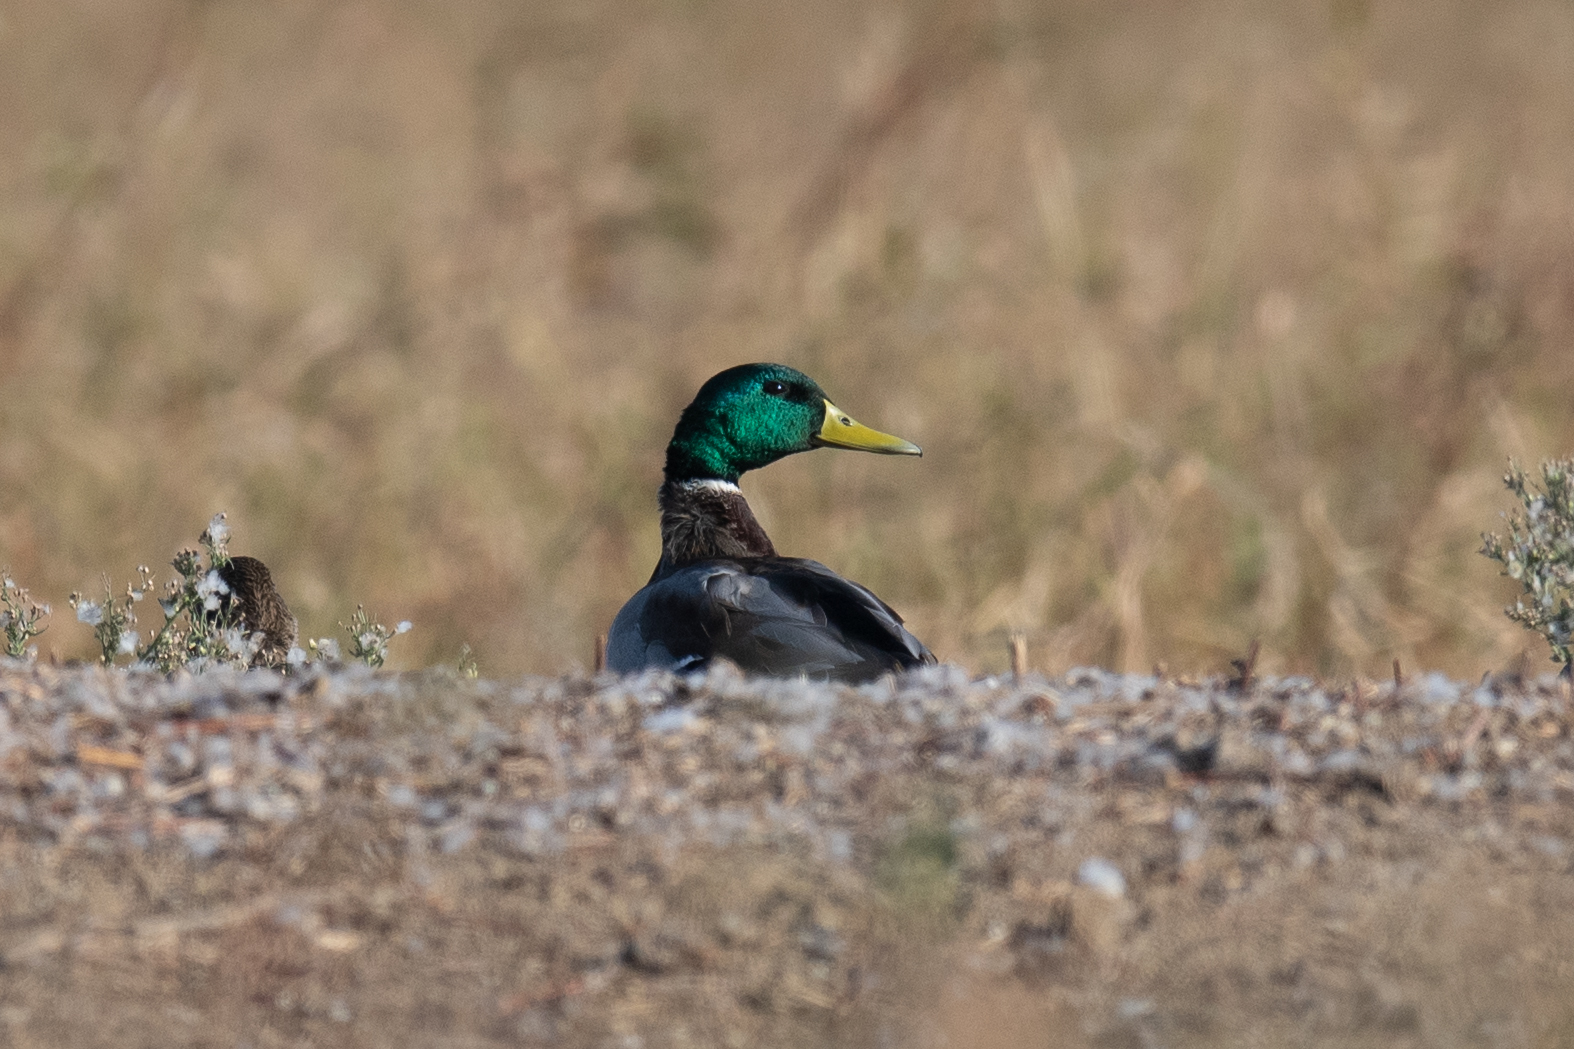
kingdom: Animalia
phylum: Chordata
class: Aves
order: Anseriformes
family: Anatidae
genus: Anas
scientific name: Anas platyrhynchos
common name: Mallard
